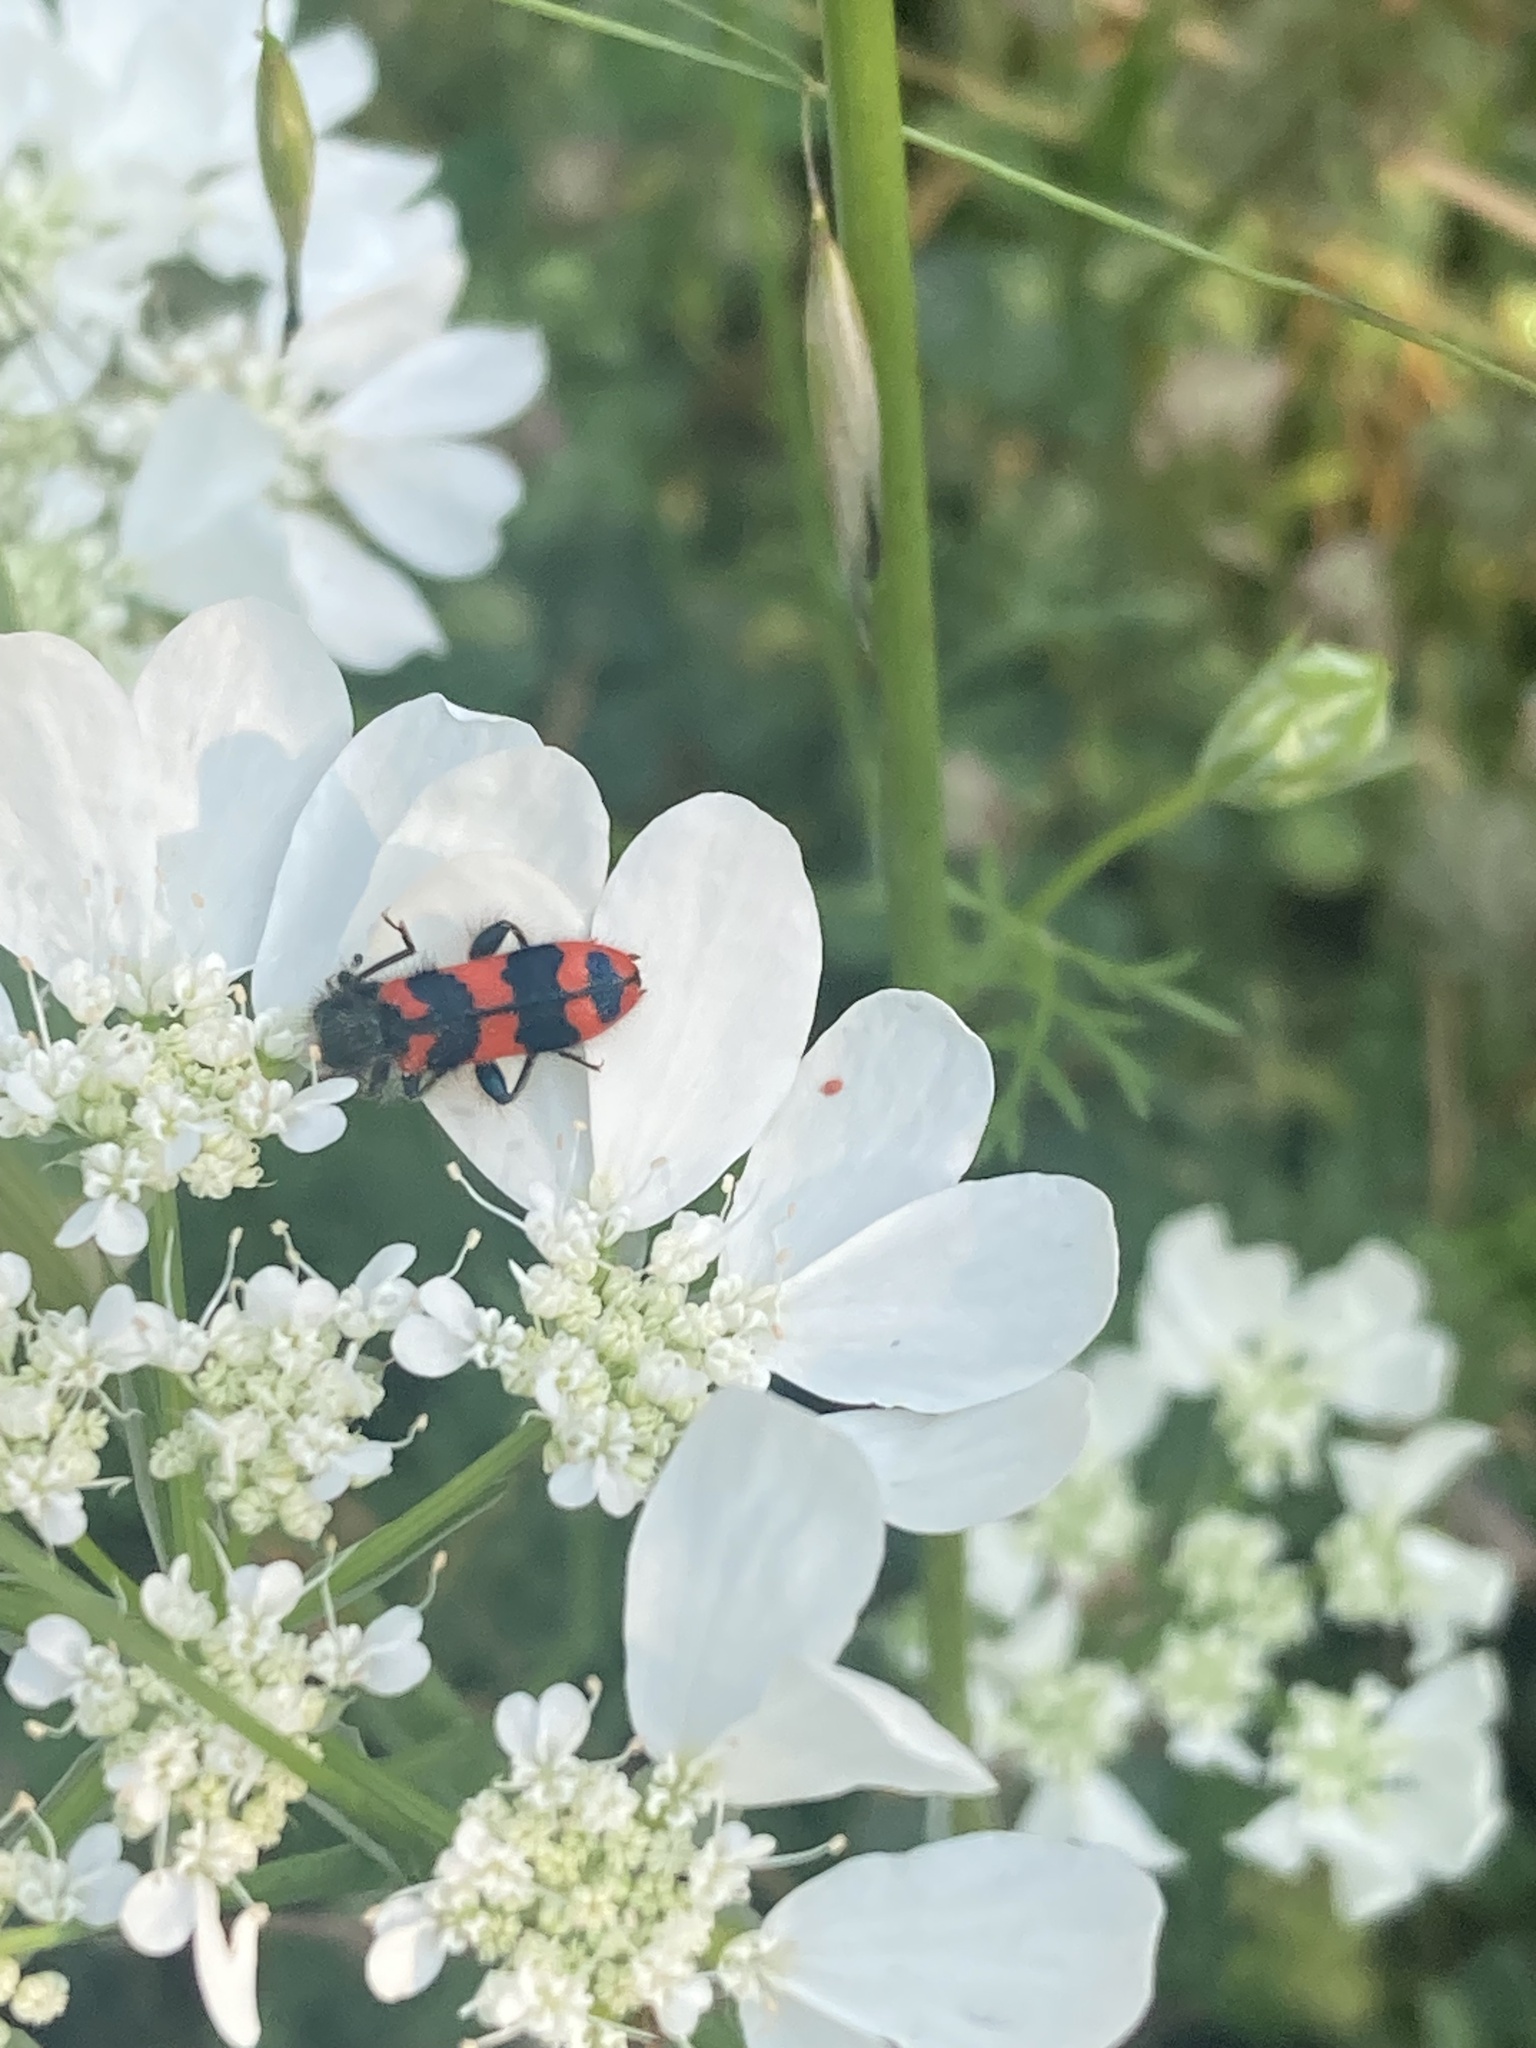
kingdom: Animalia
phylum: Arthropoda
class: Insecta
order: Coleoptera
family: Cleridae
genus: Trichodes
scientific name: Trichodes alvearius
